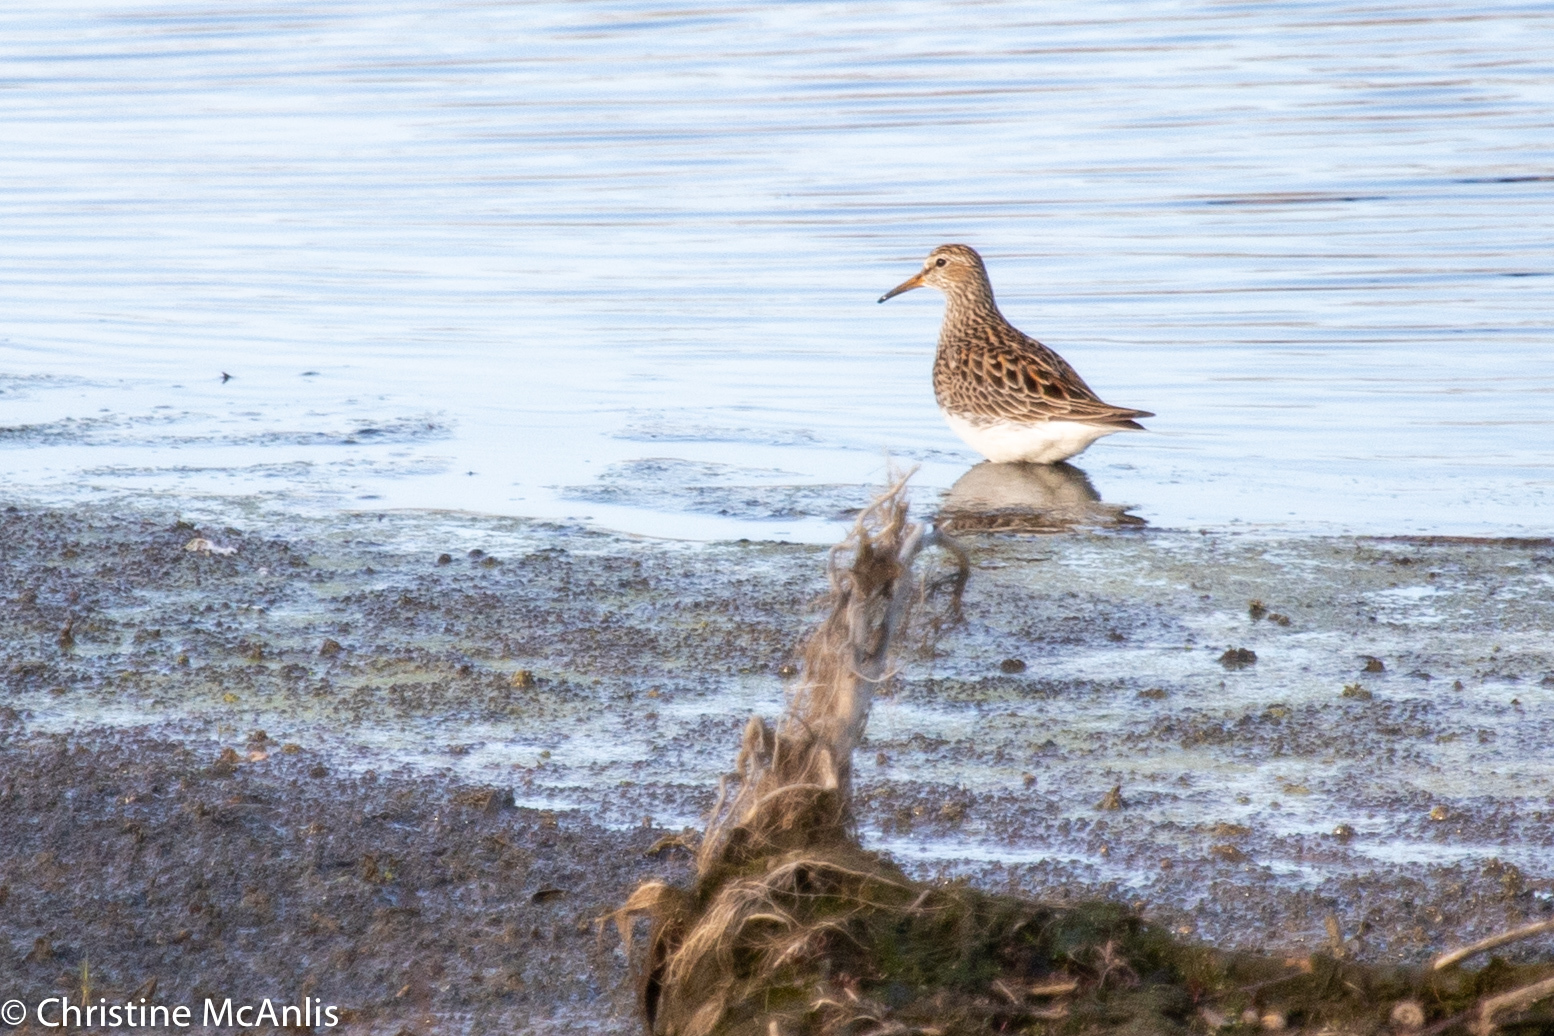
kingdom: Animalia
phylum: Chordata
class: Aves
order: Charadriiformes
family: Scolopacidae
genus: Calidris
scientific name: Calidris melanotos
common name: Pectoral sandpiper
